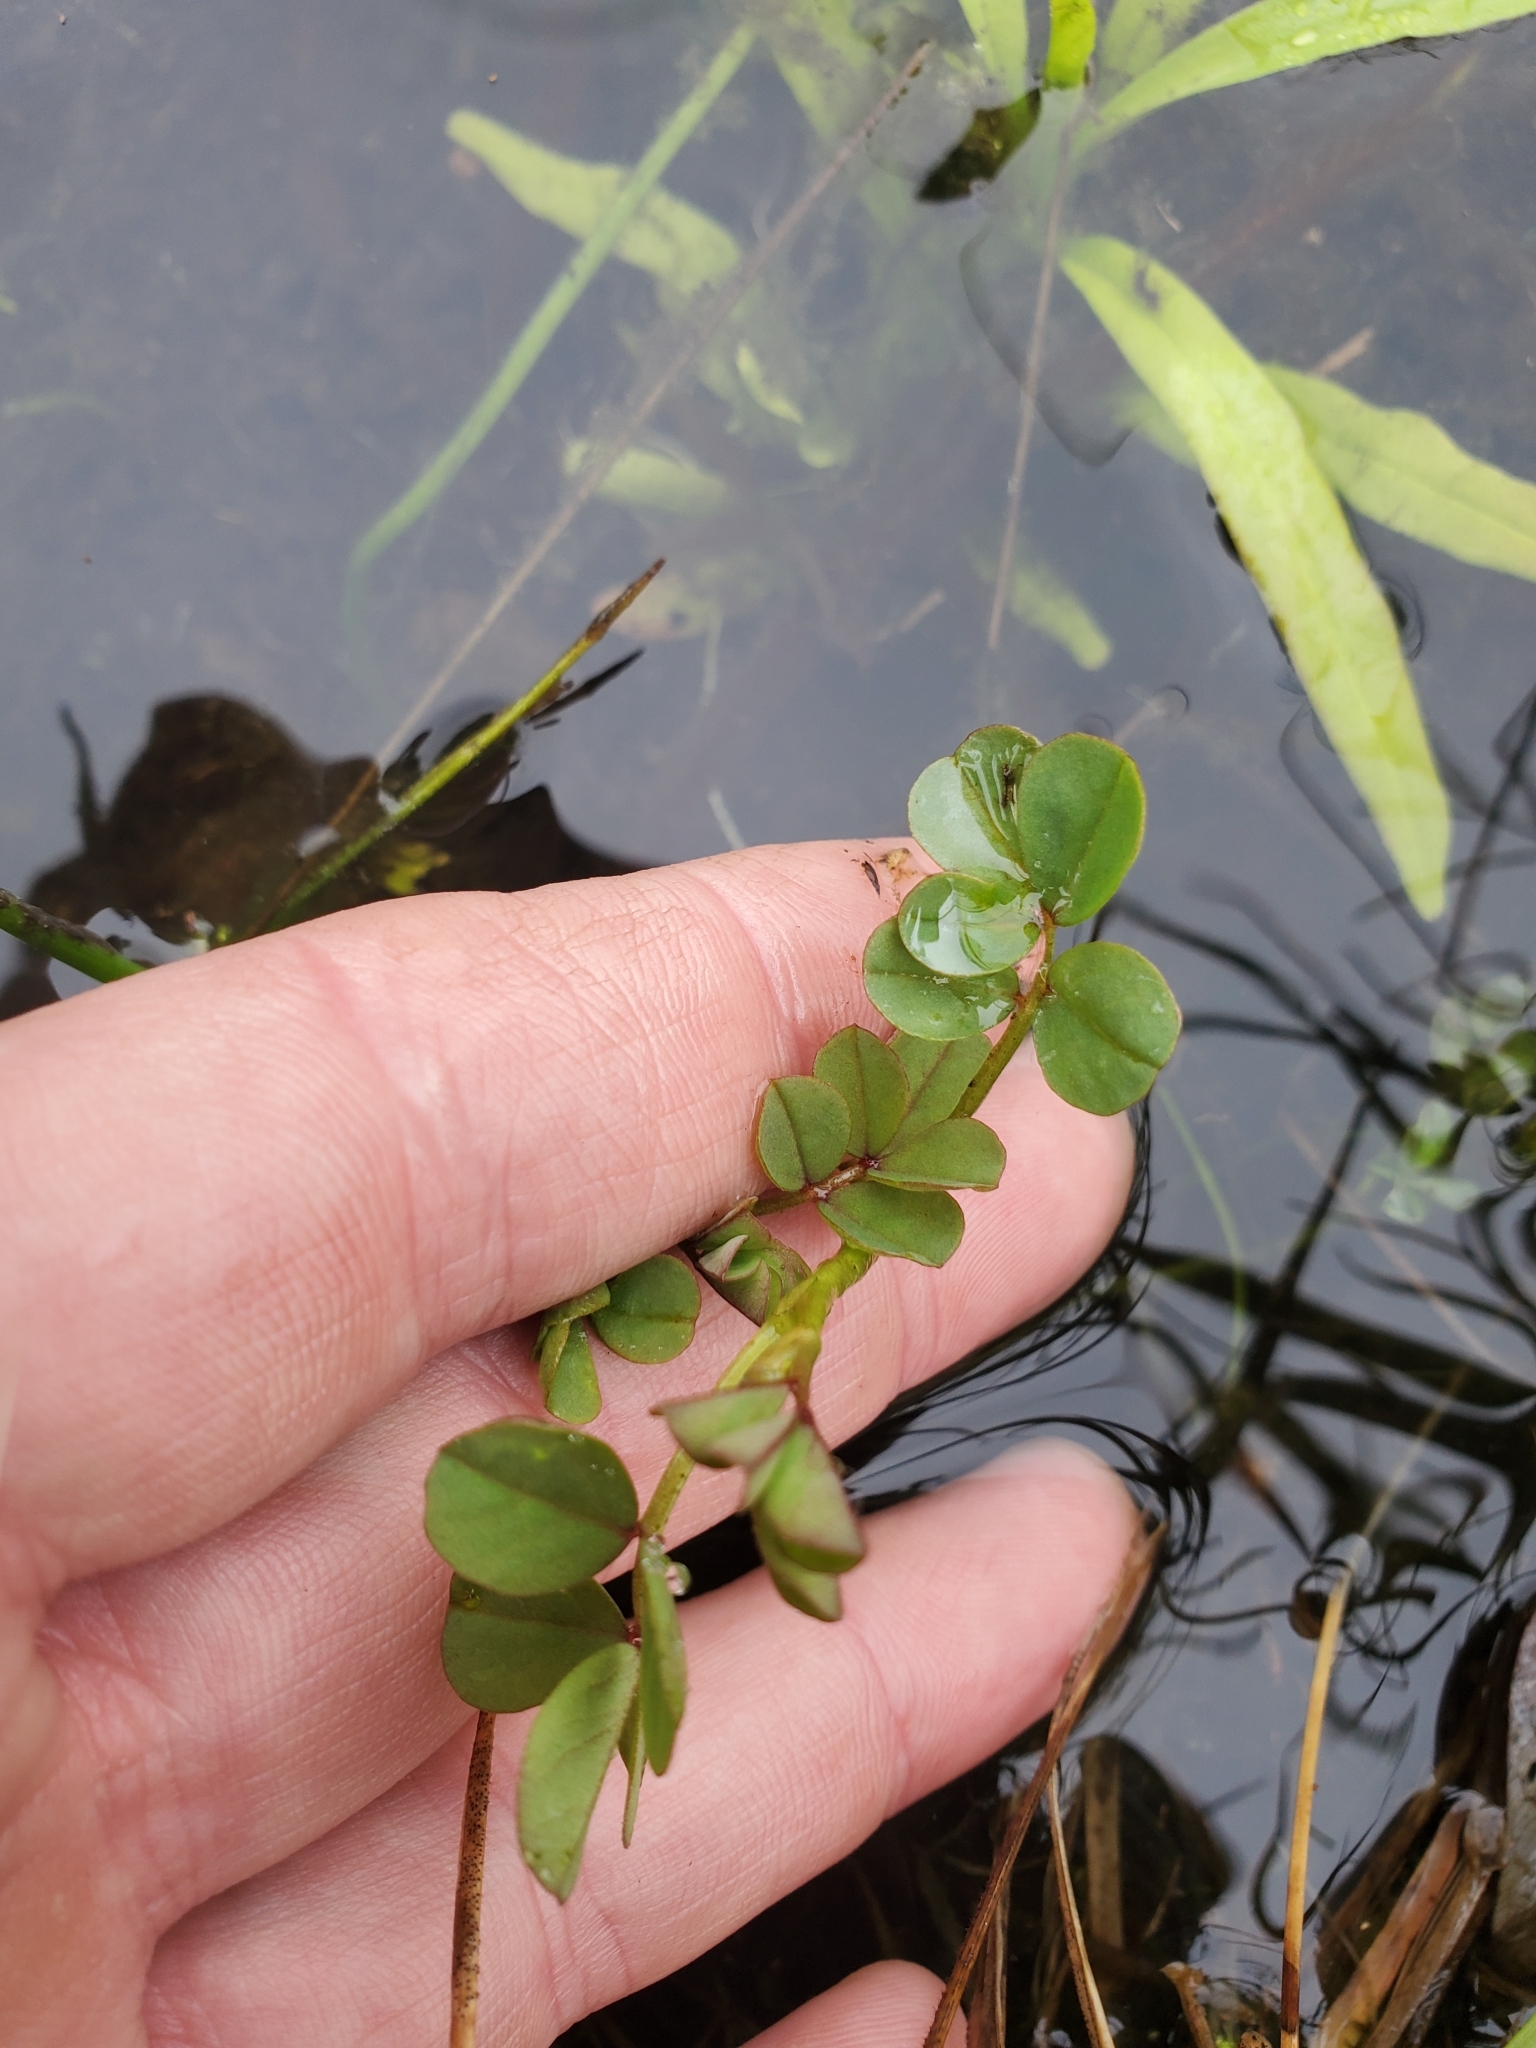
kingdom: Plantae
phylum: Tracheophyta
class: Magnoliopsida
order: Fabales
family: Fabaceae
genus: Hosackia
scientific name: Hosackia pinnata
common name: Bog bird's-foot trefoil
